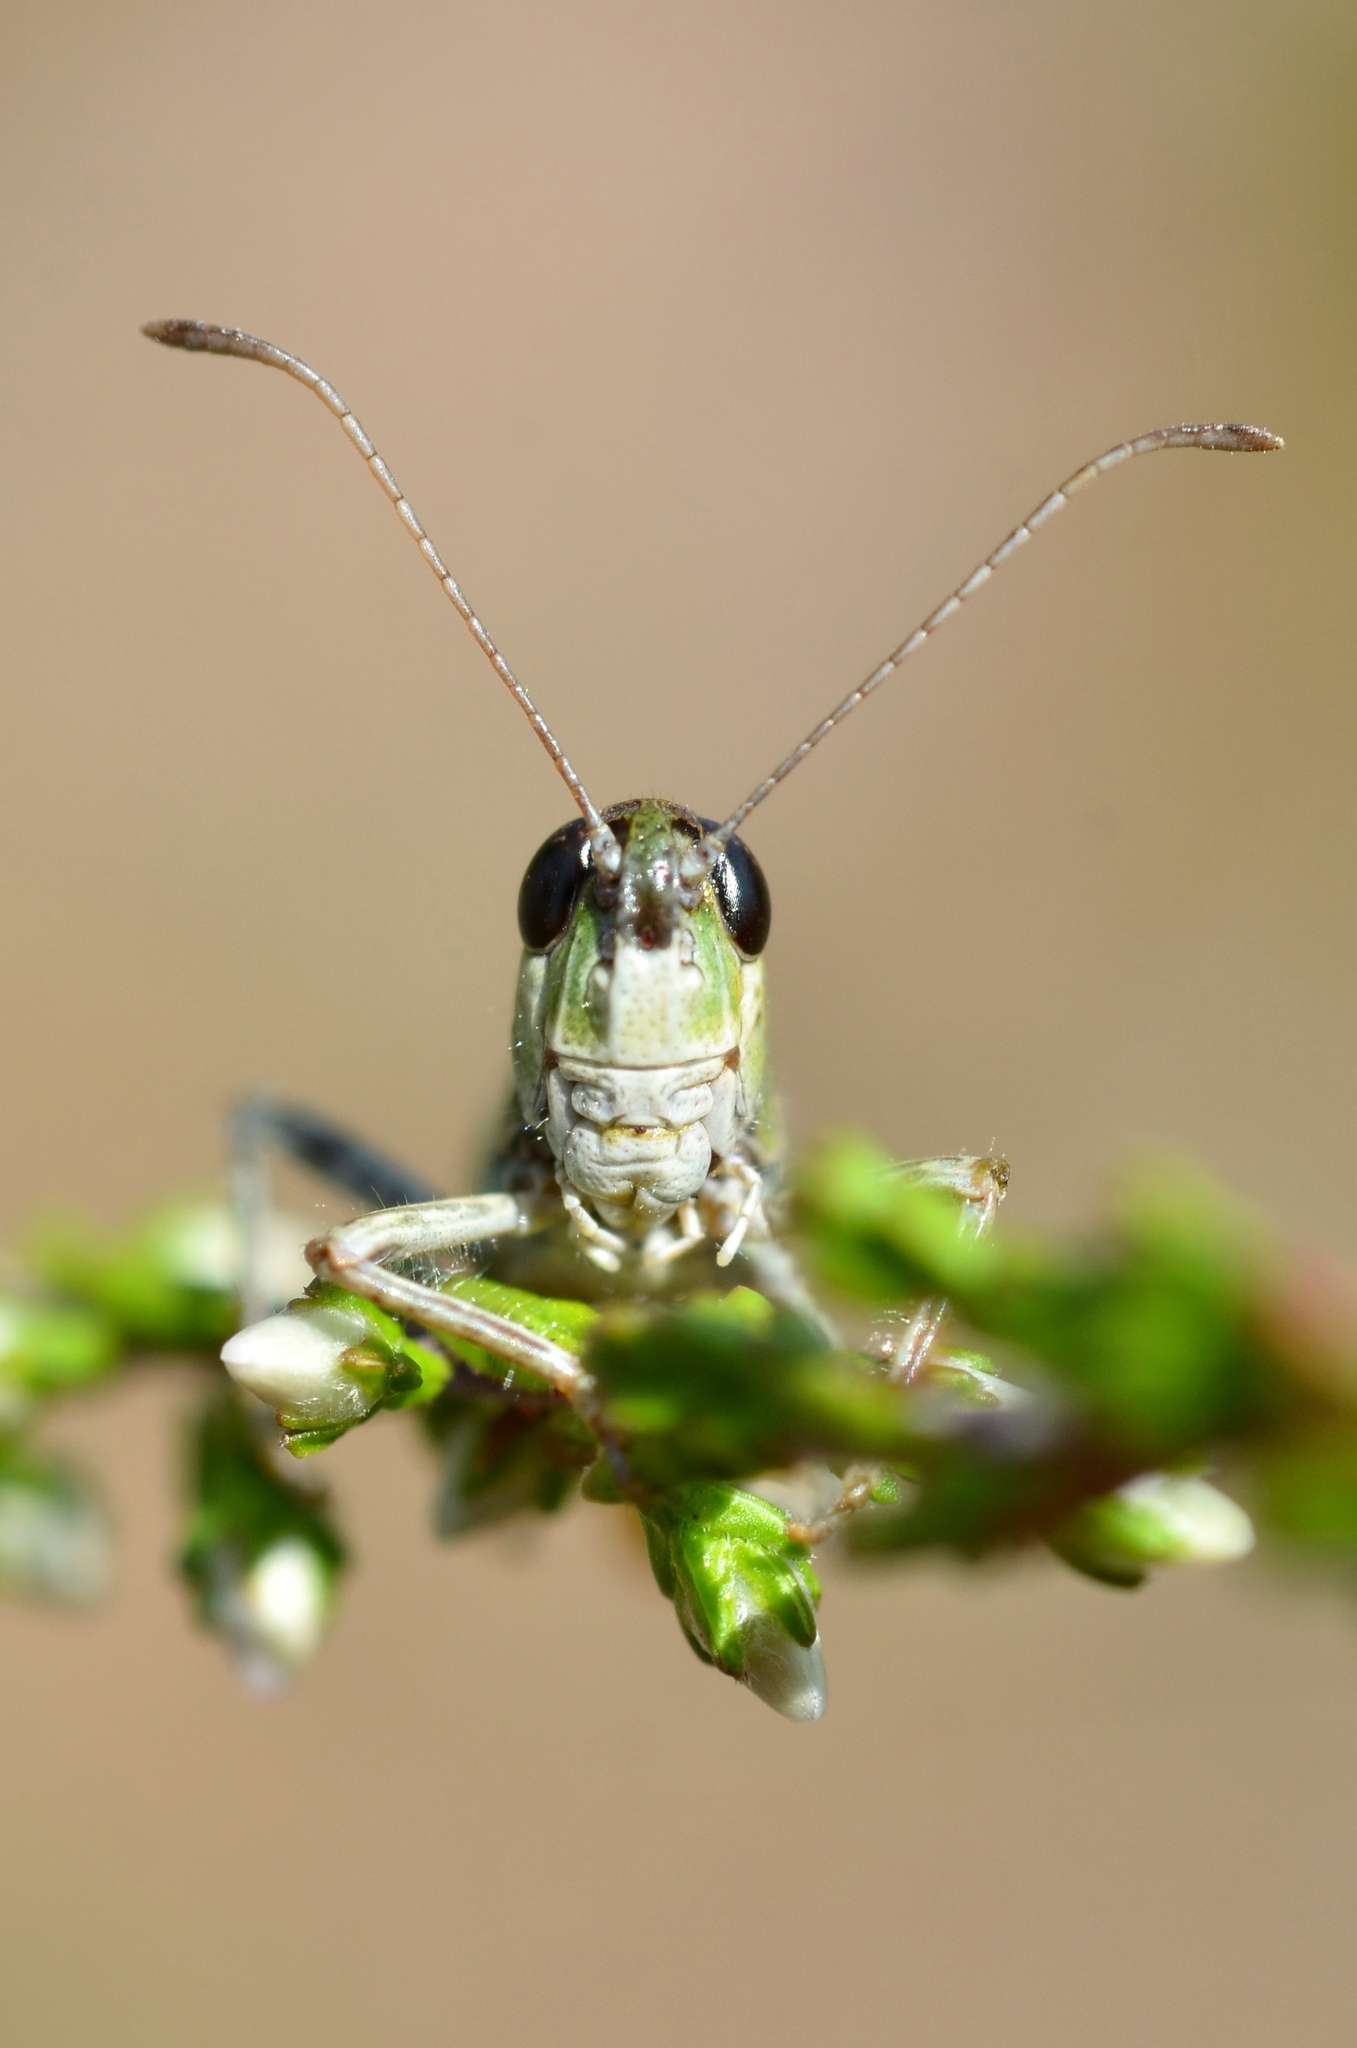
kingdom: Animalia
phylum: Arthropoda
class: Insecta
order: Orthoptera
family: Acrididae
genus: Myrmeleotettix
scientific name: Myrmeleotettix maculatus
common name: Mottled grasshopper
